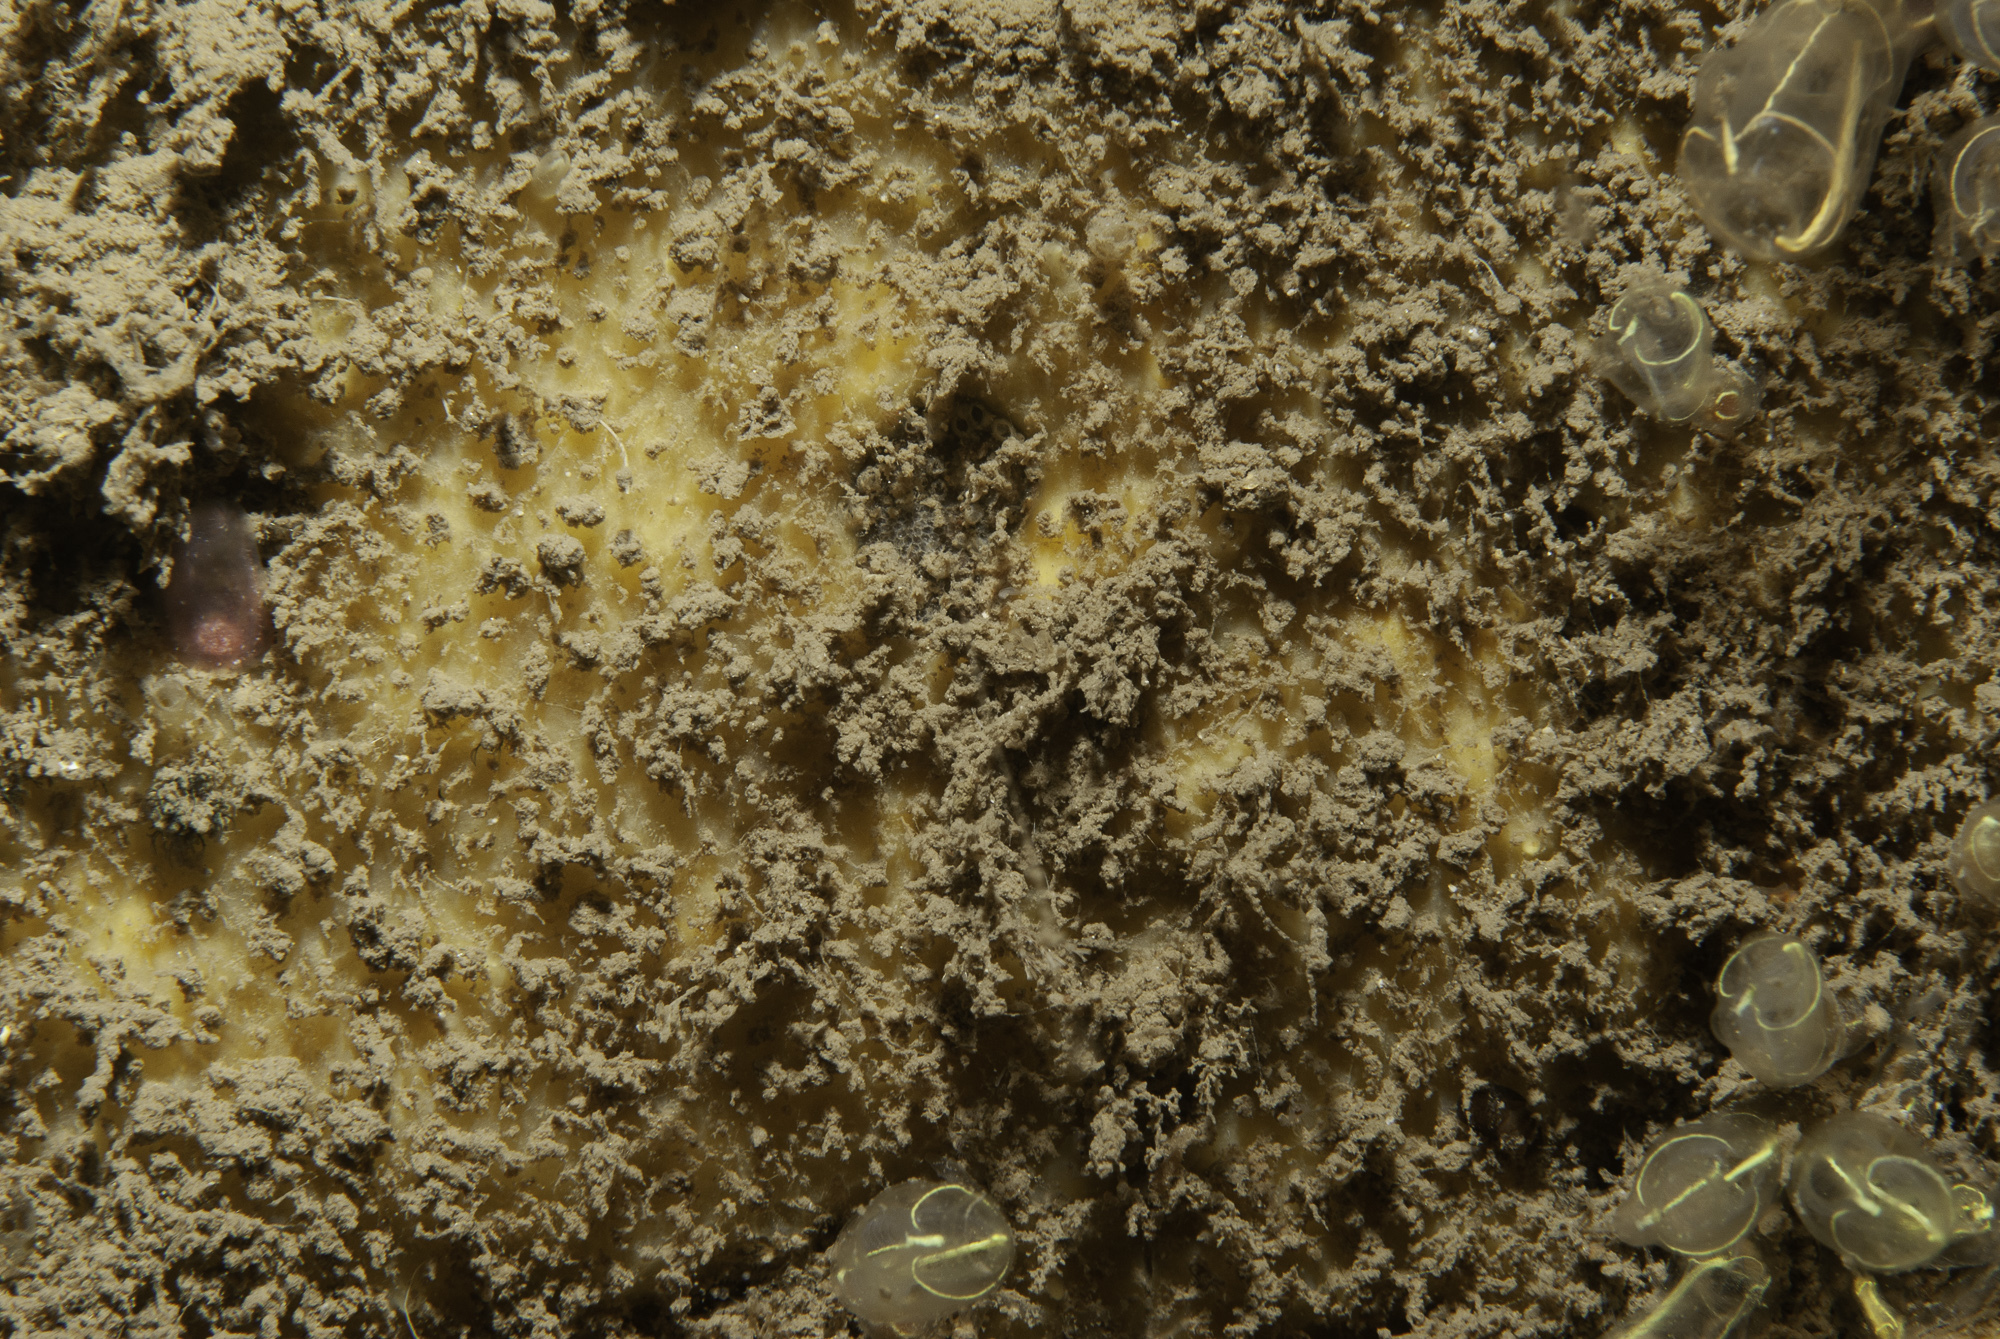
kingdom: Animalia
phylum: Porifera
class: Demospongiae
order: Axinellida
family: Stelligeridae
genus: Paratimea
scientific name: Paratimea loennbergi
